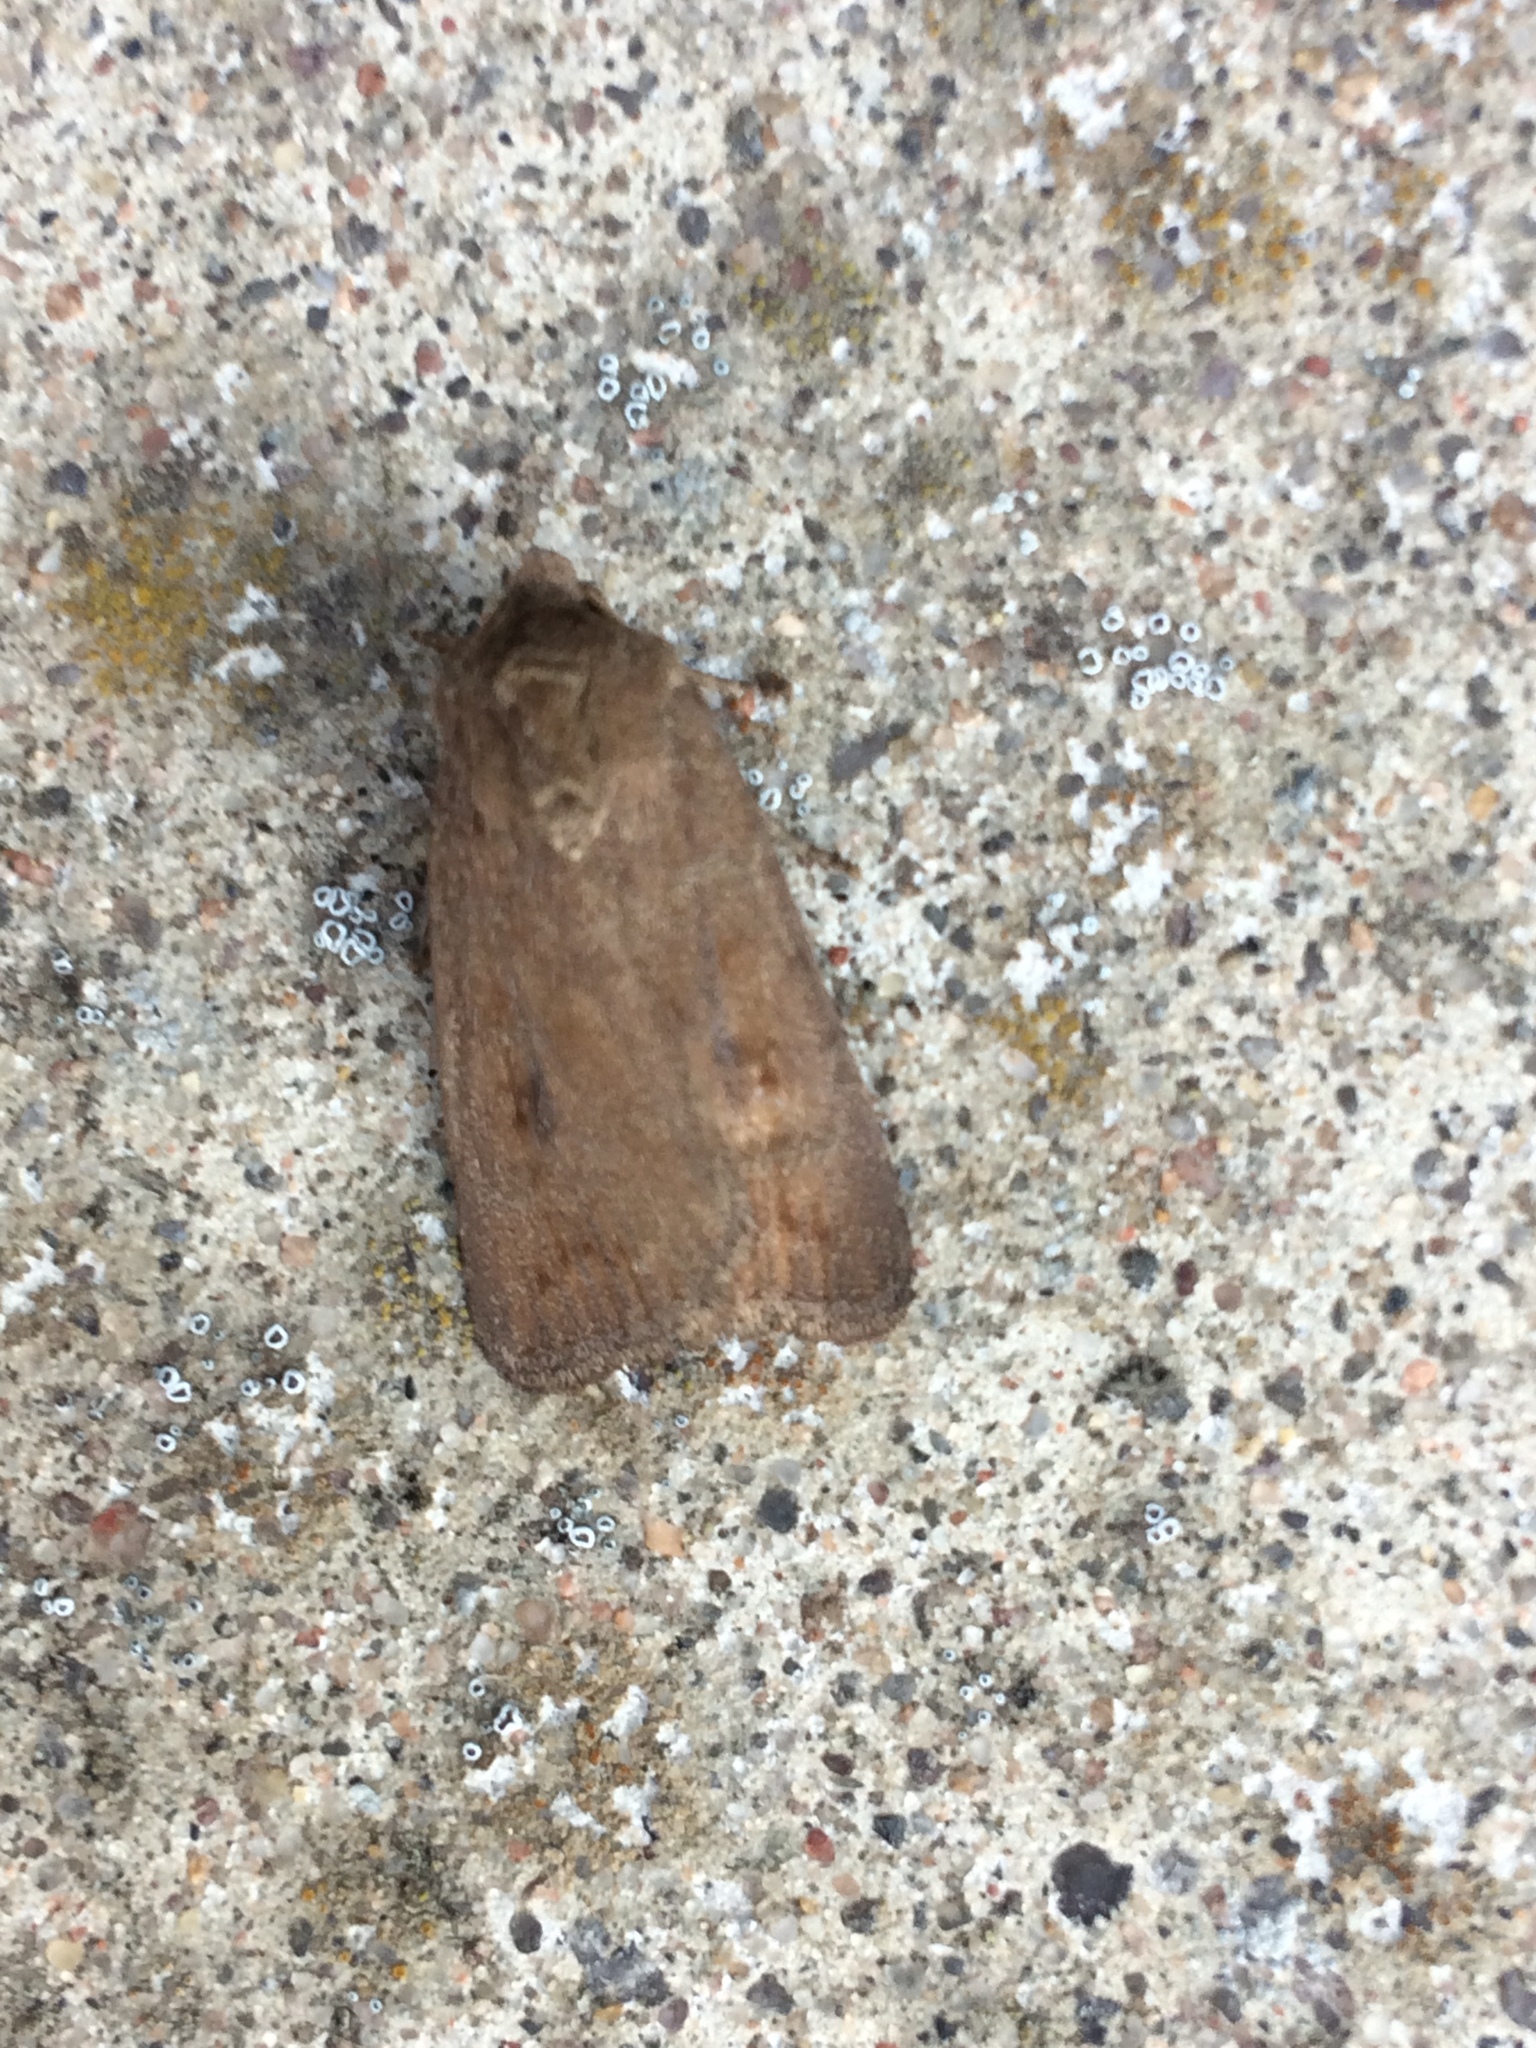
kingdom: Animalia
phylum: Arthropoda
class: Insecta
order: Lepidoptera
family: Noctuidae
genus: Caradrina
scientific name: Caradrina morpheus
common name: Mottled rustic
